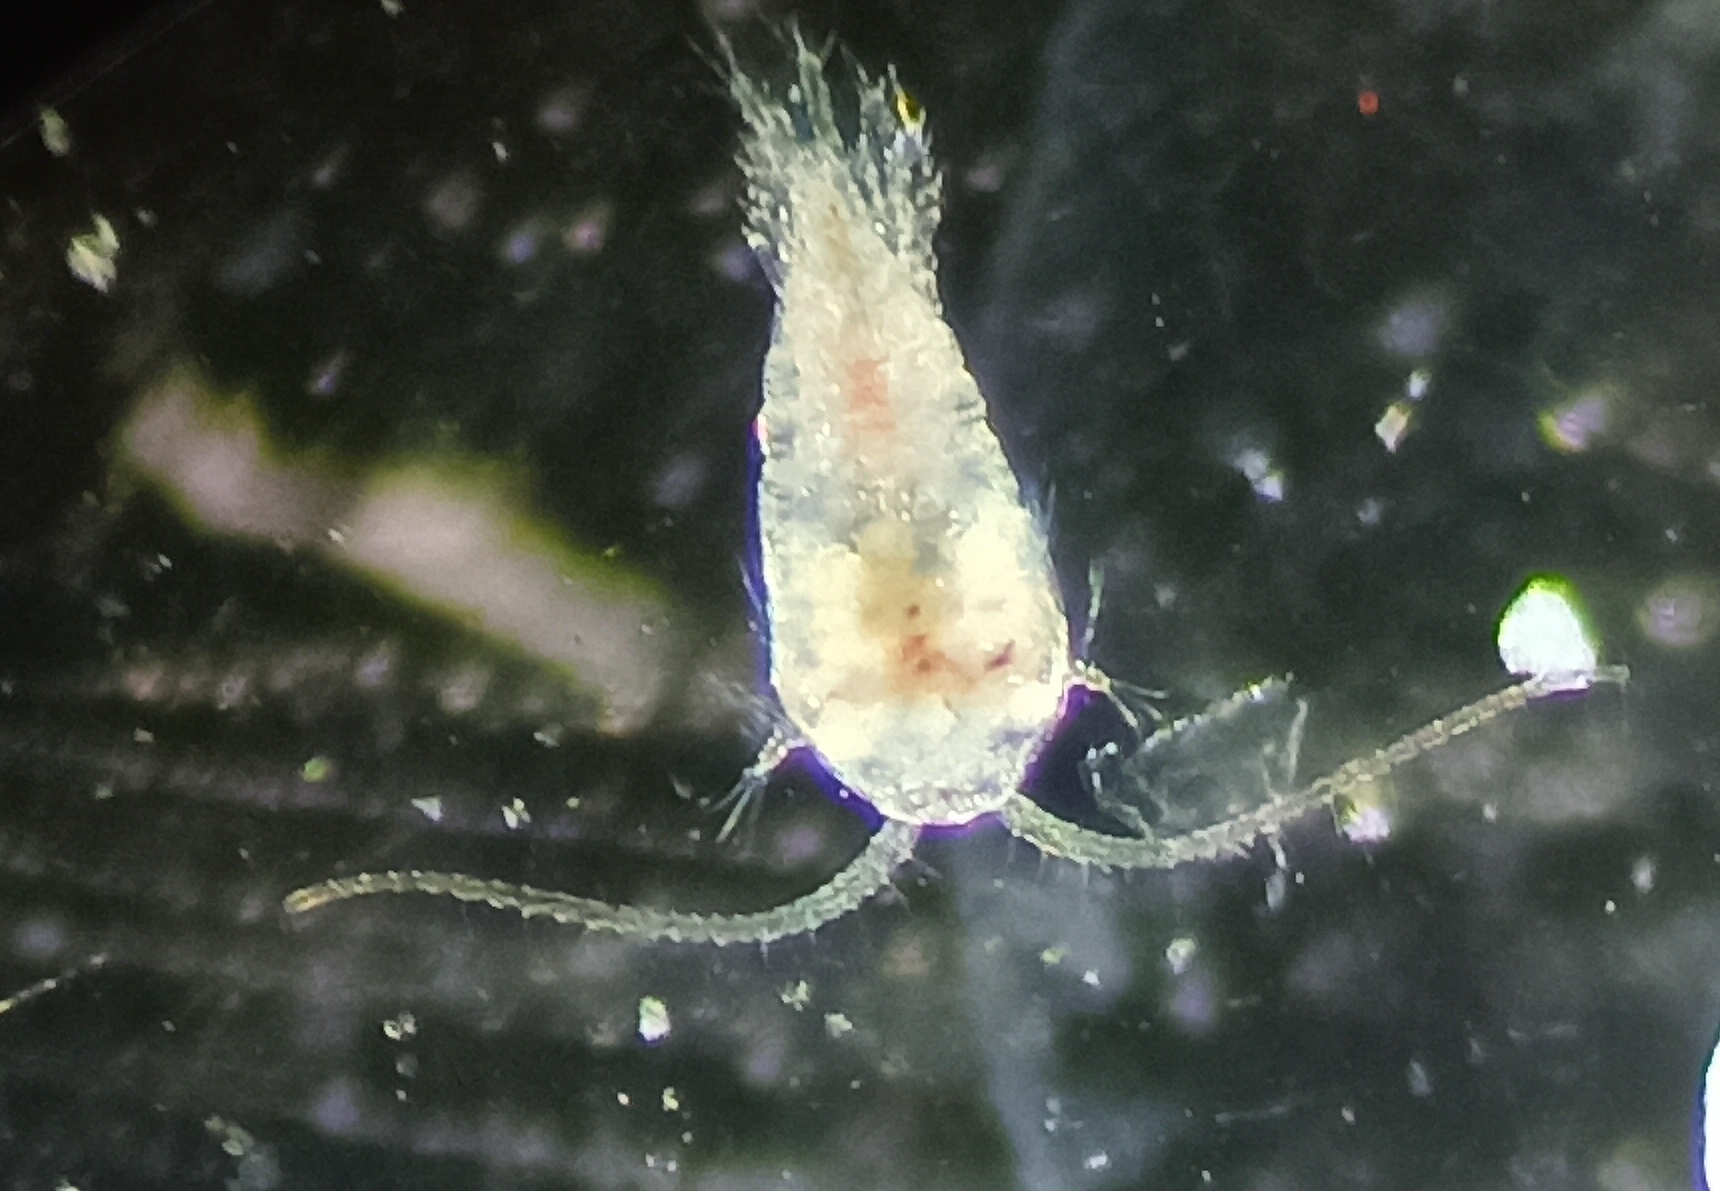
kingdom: Animalia
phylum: Arthropoda
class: Copepoda
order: Calanoida
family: Temoridae
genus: Temora
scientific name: Temora turbinata
